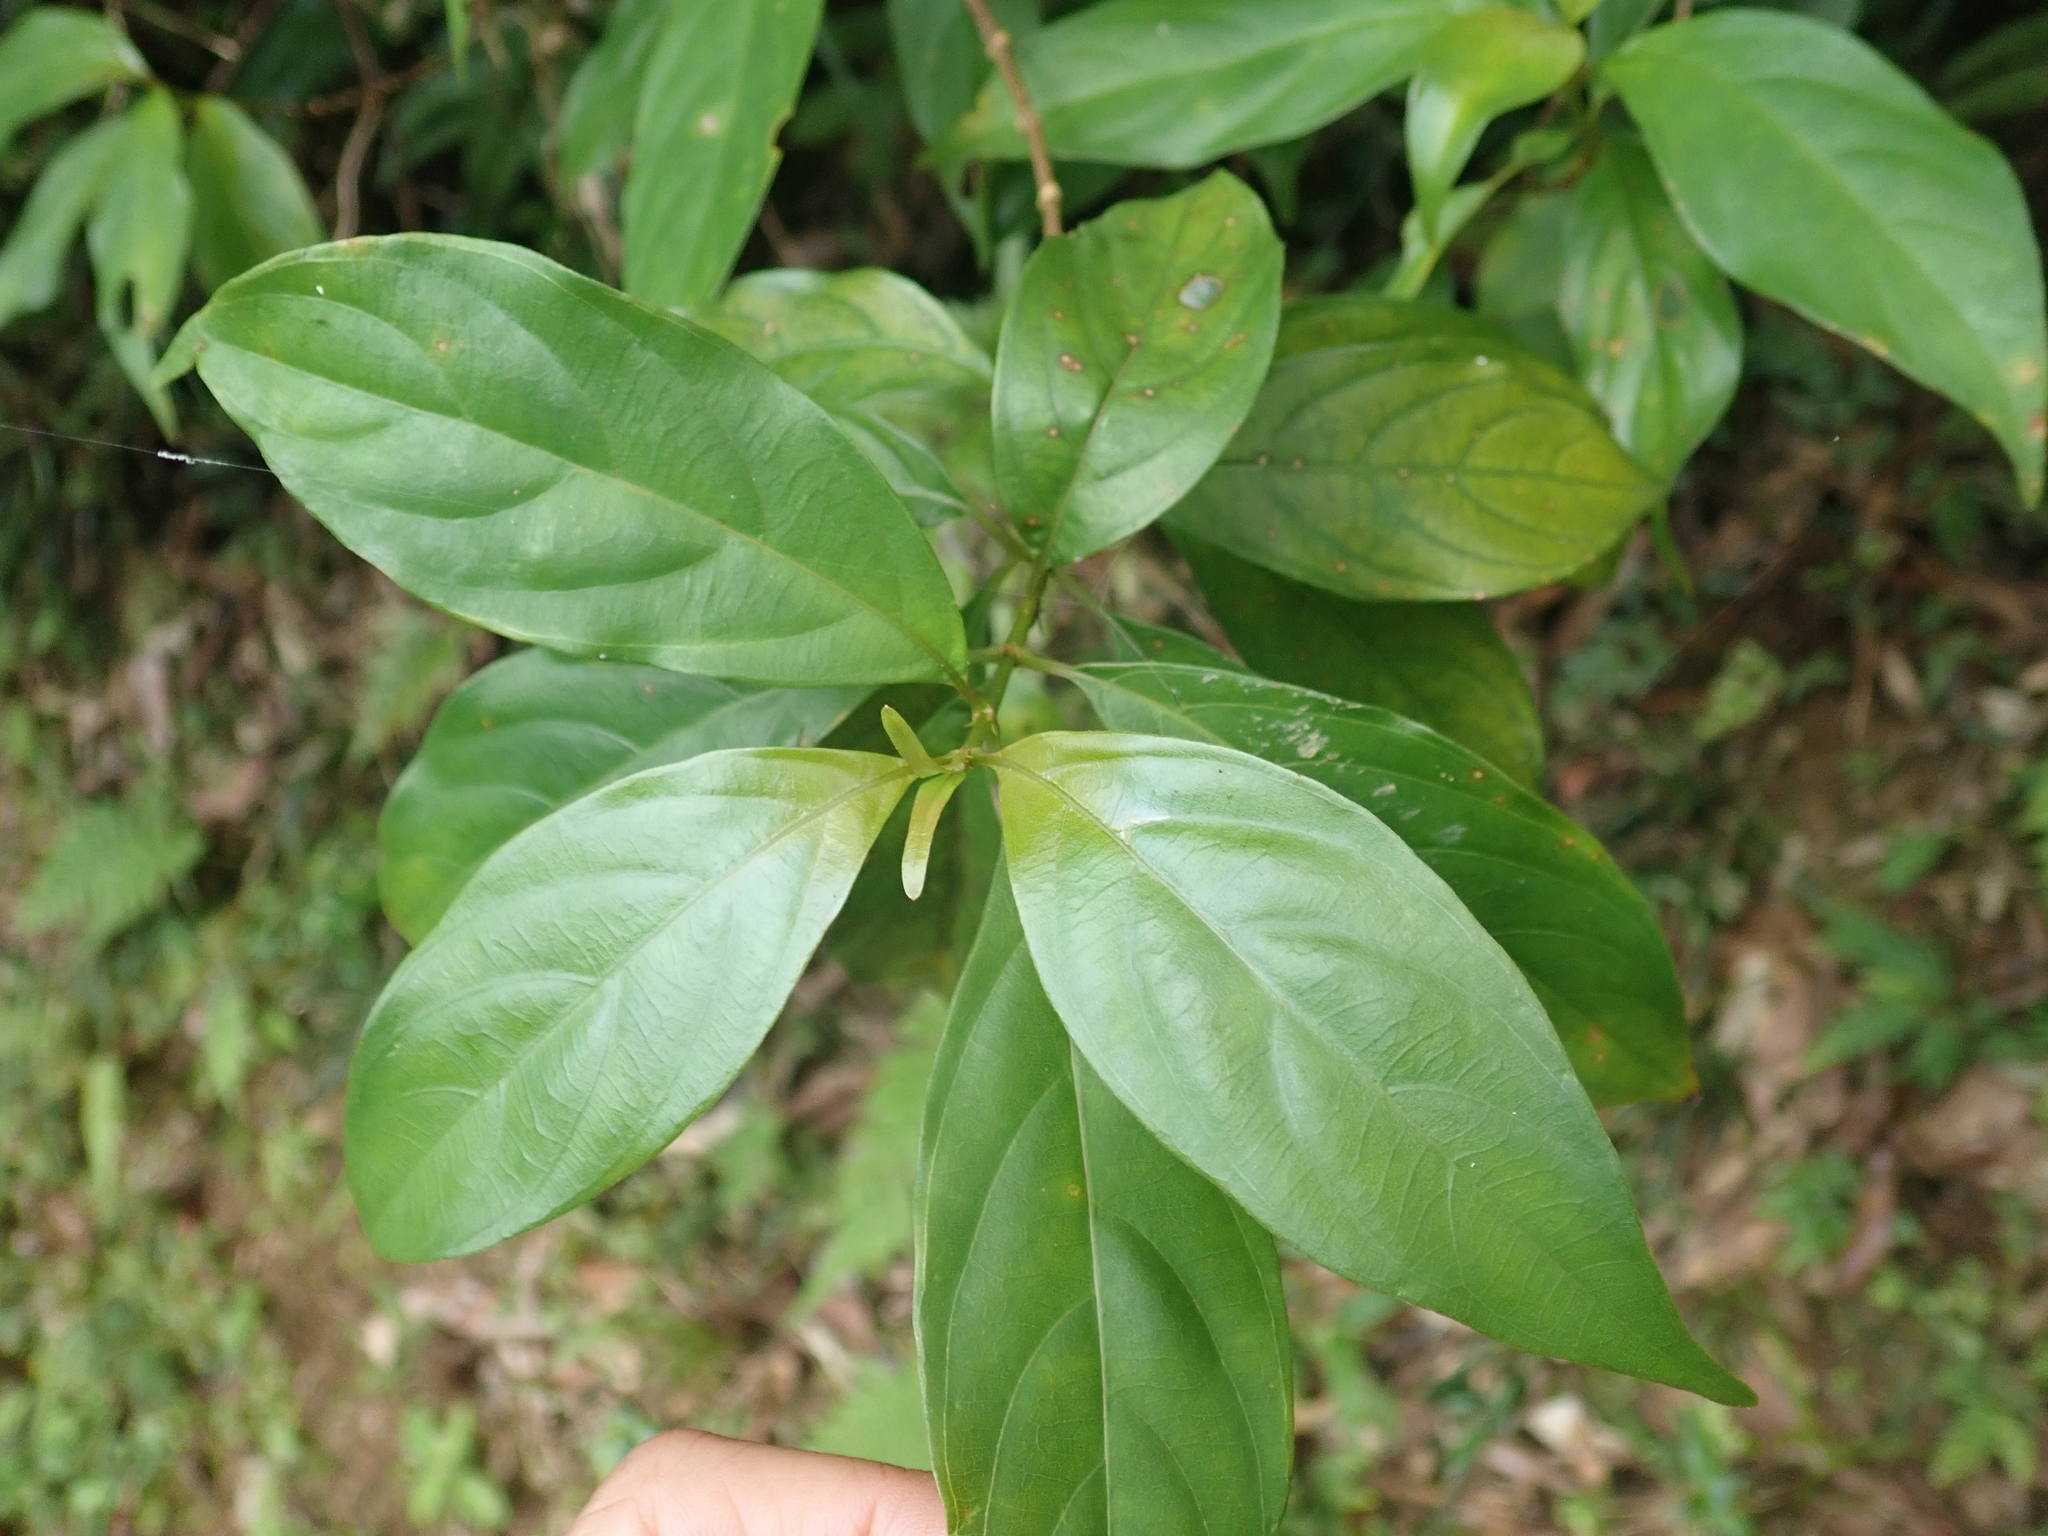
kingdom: Plantae
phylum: Tracheophyta
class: Magnoliopsida
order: Gentianales
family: Rubiaceae
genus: Mussaenda
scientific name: Mussaenda parviflora
